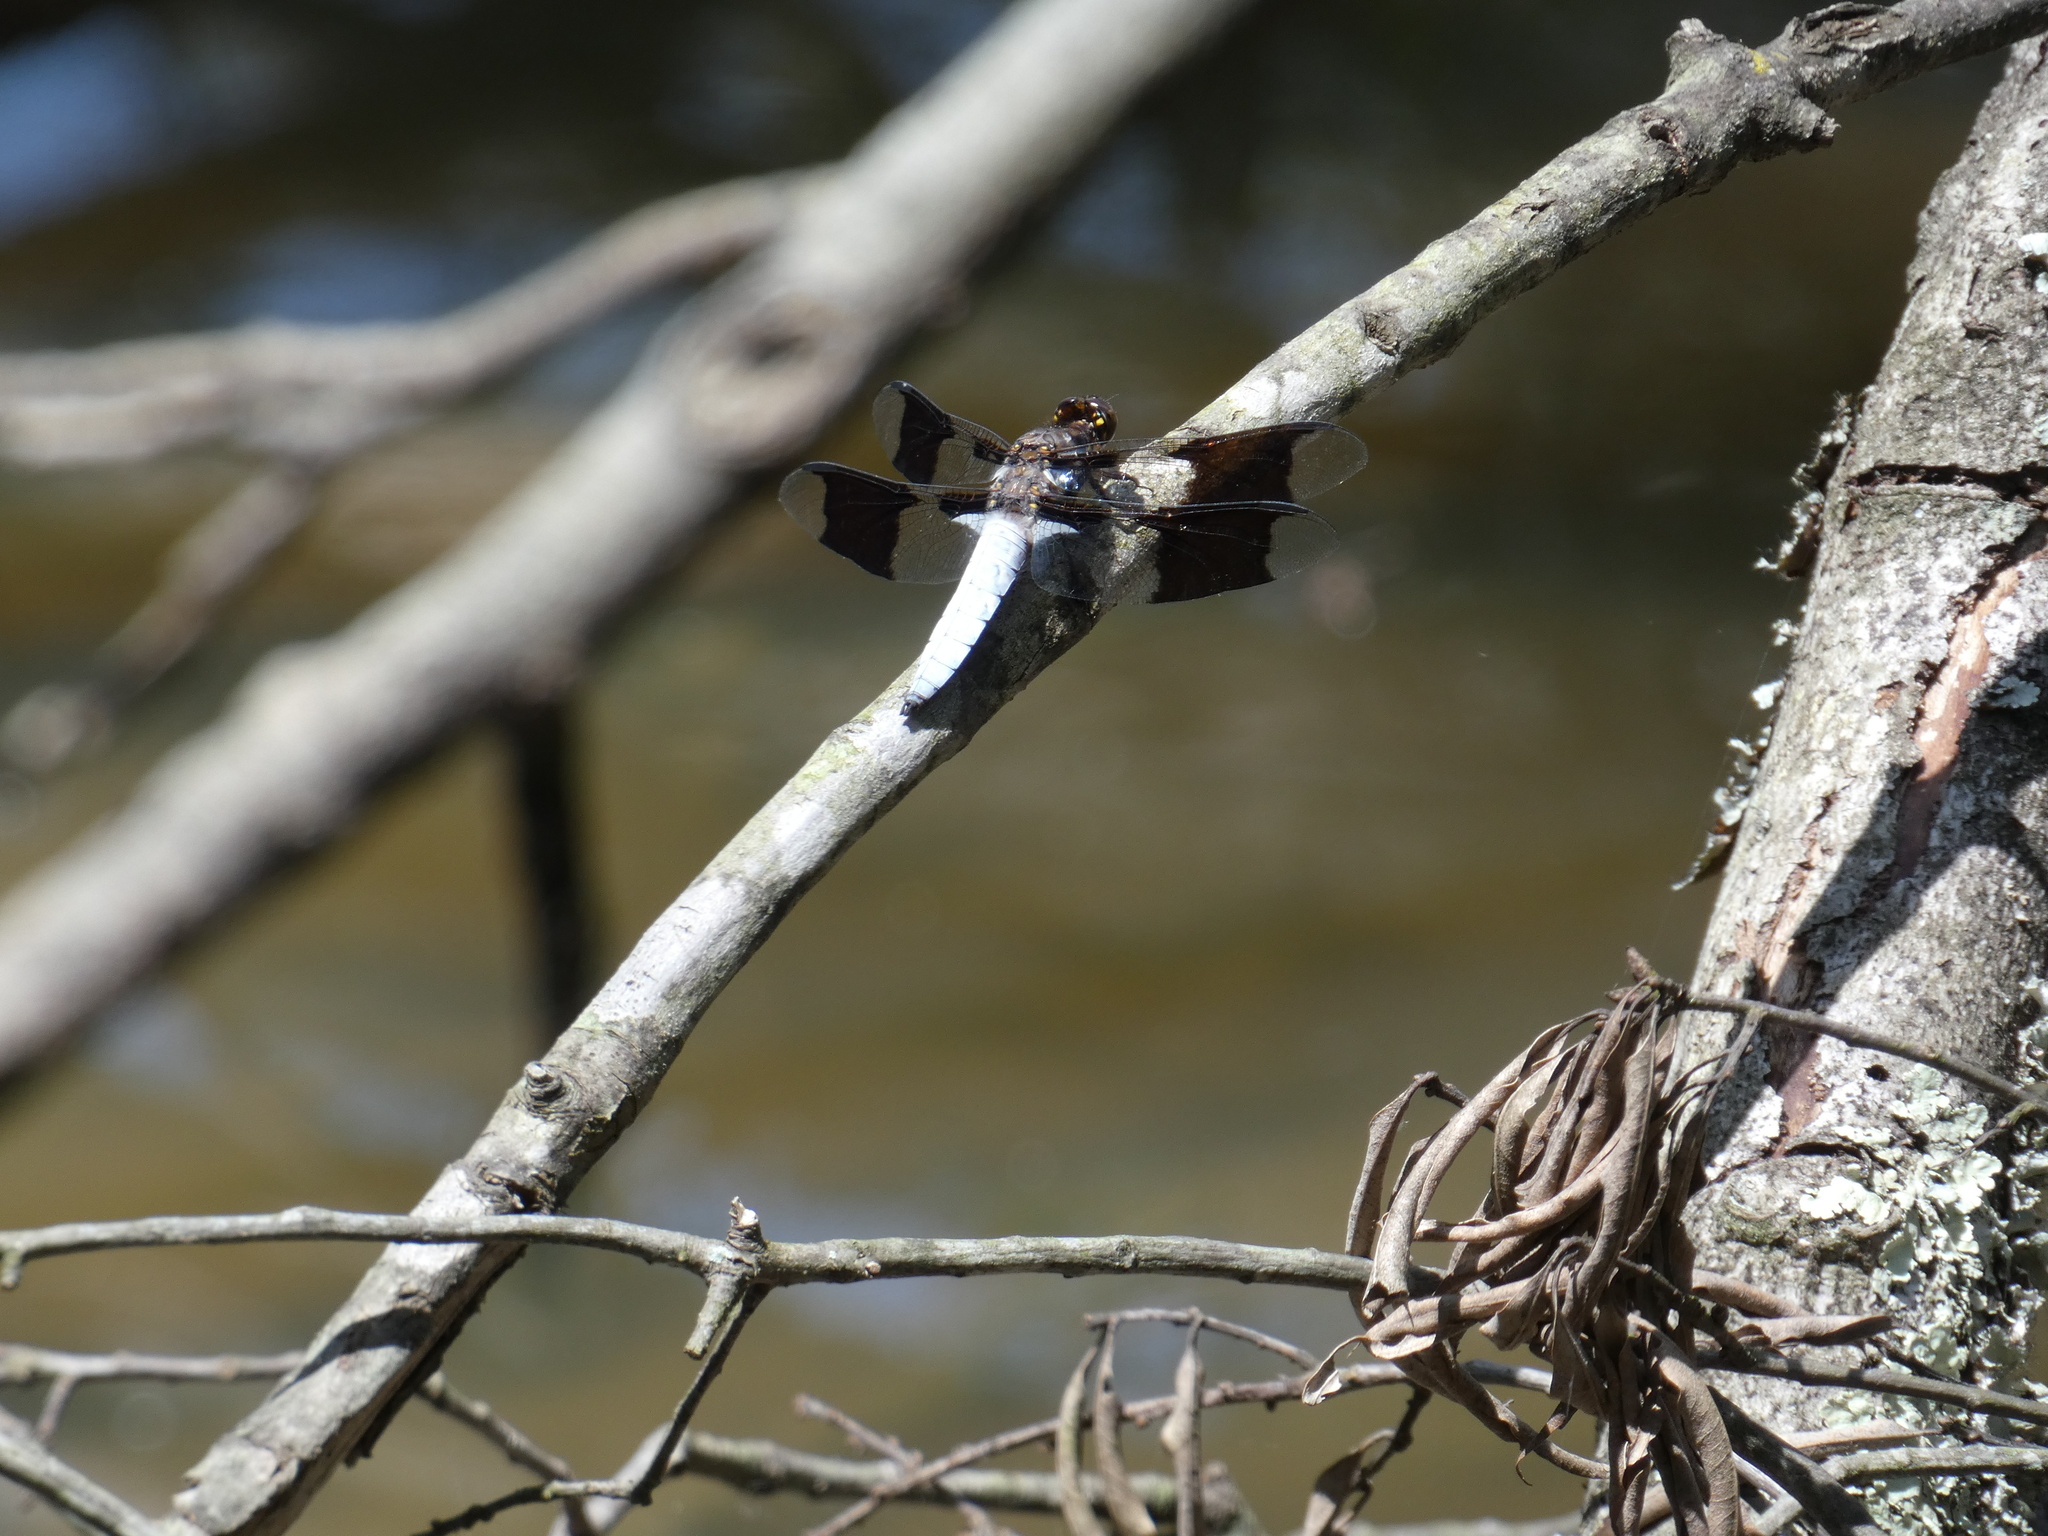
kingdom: Animalia
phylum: Arthropoda
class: Insecta
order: Odonata
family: Libellulidae
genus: Plathemis
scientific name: Plathemis lydia
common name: Common whitetail
